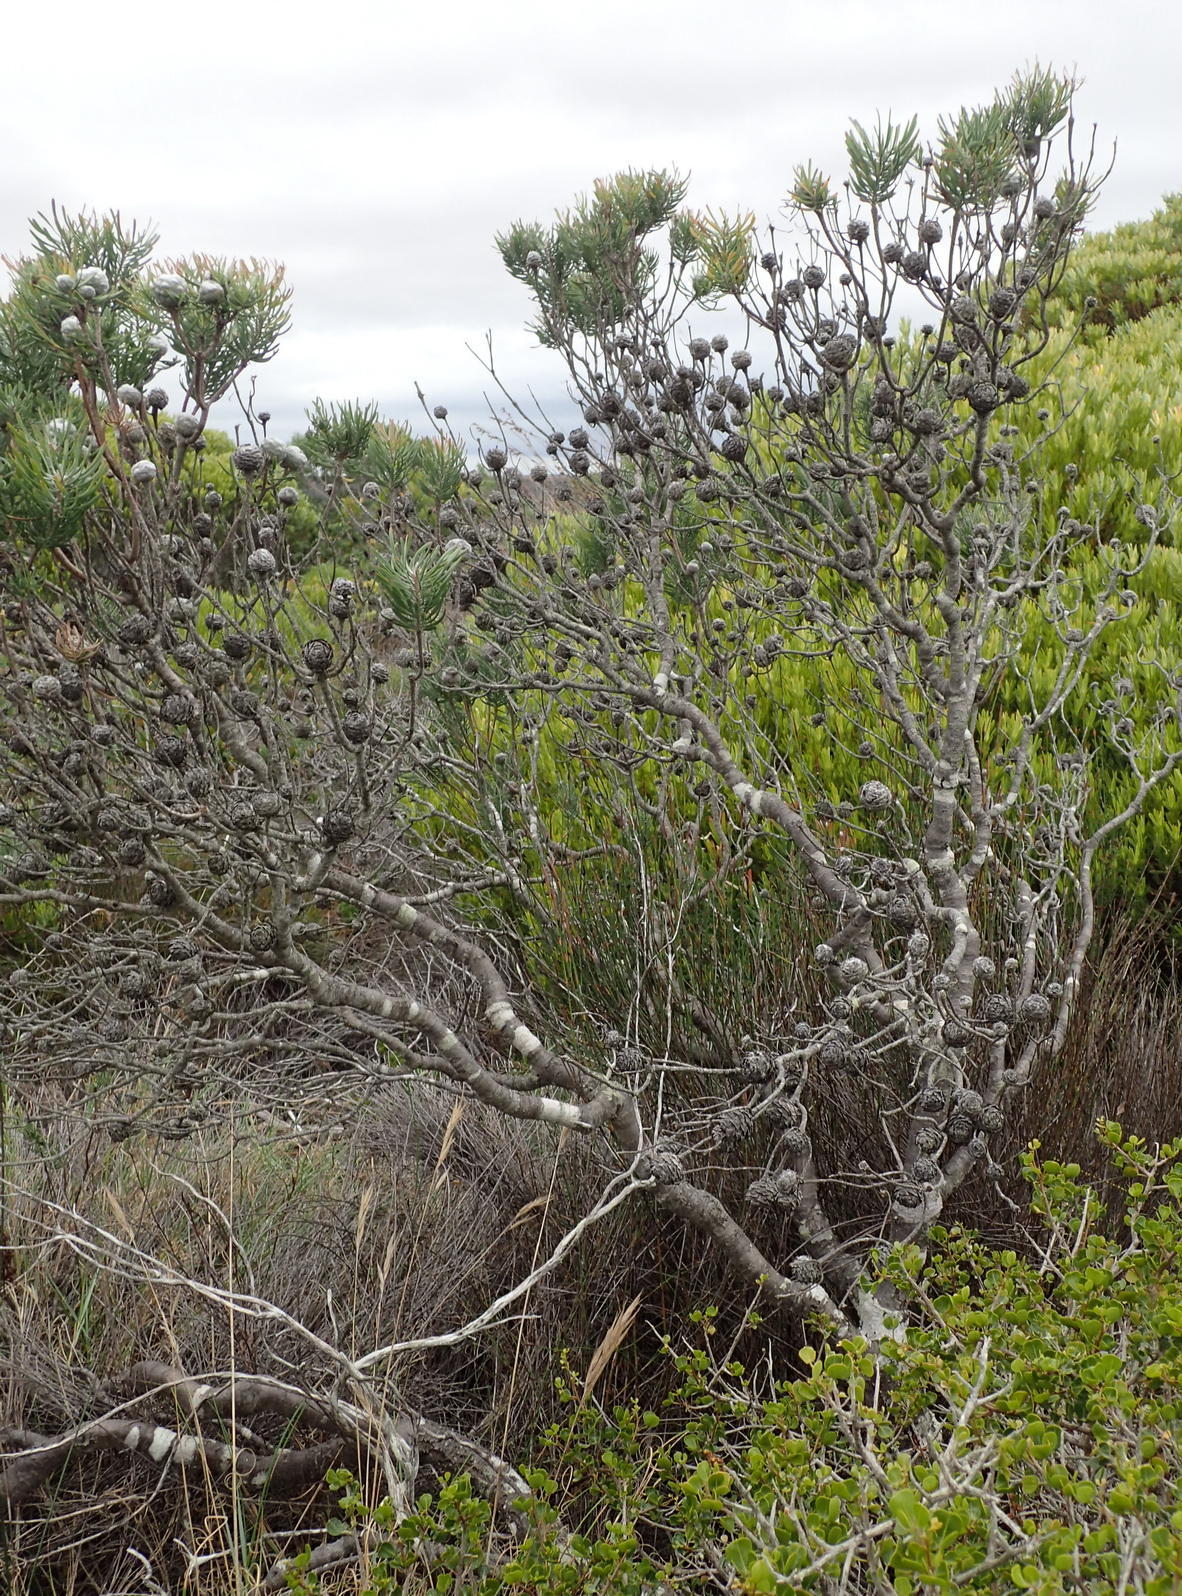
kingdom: Plantae
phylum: Tracheophyta
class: Magnoliopsida
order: Proteales
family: Proteaceae
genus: Leucadendron
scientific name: Leucadendron galpinii
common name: Hairless conebush
